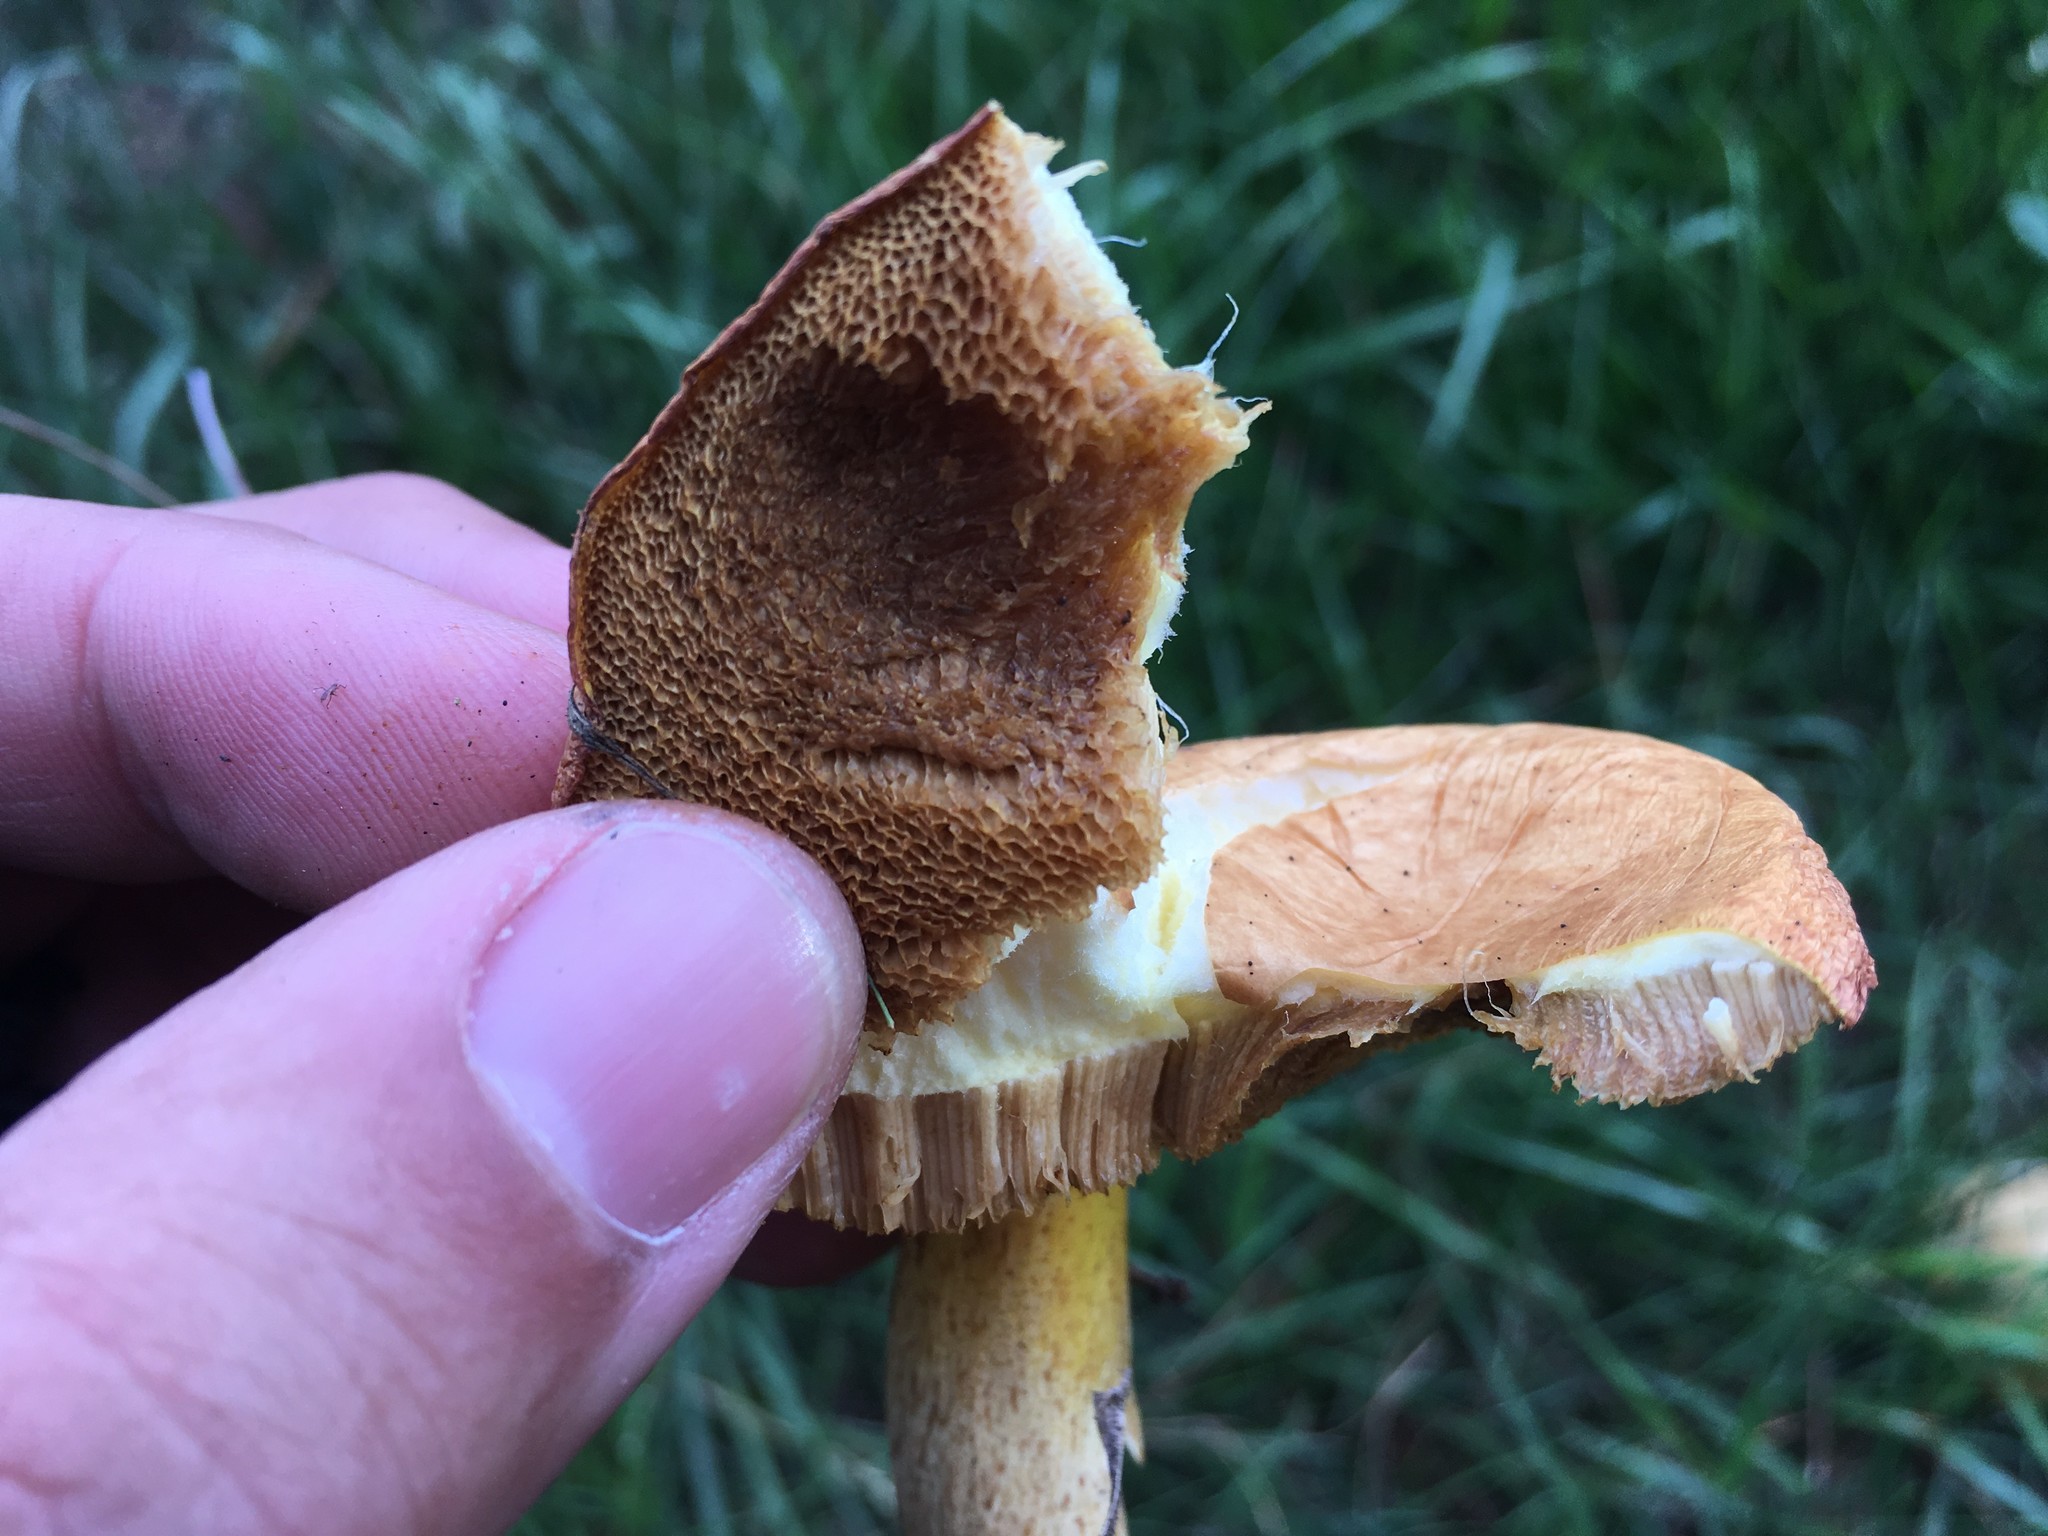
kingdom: Fungi
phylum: Basidiomycota
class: Agaricomycetes
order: Boletales
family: Suillaceae
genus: Suillus
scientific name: Suillus granulatus
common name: Weeping bolete
